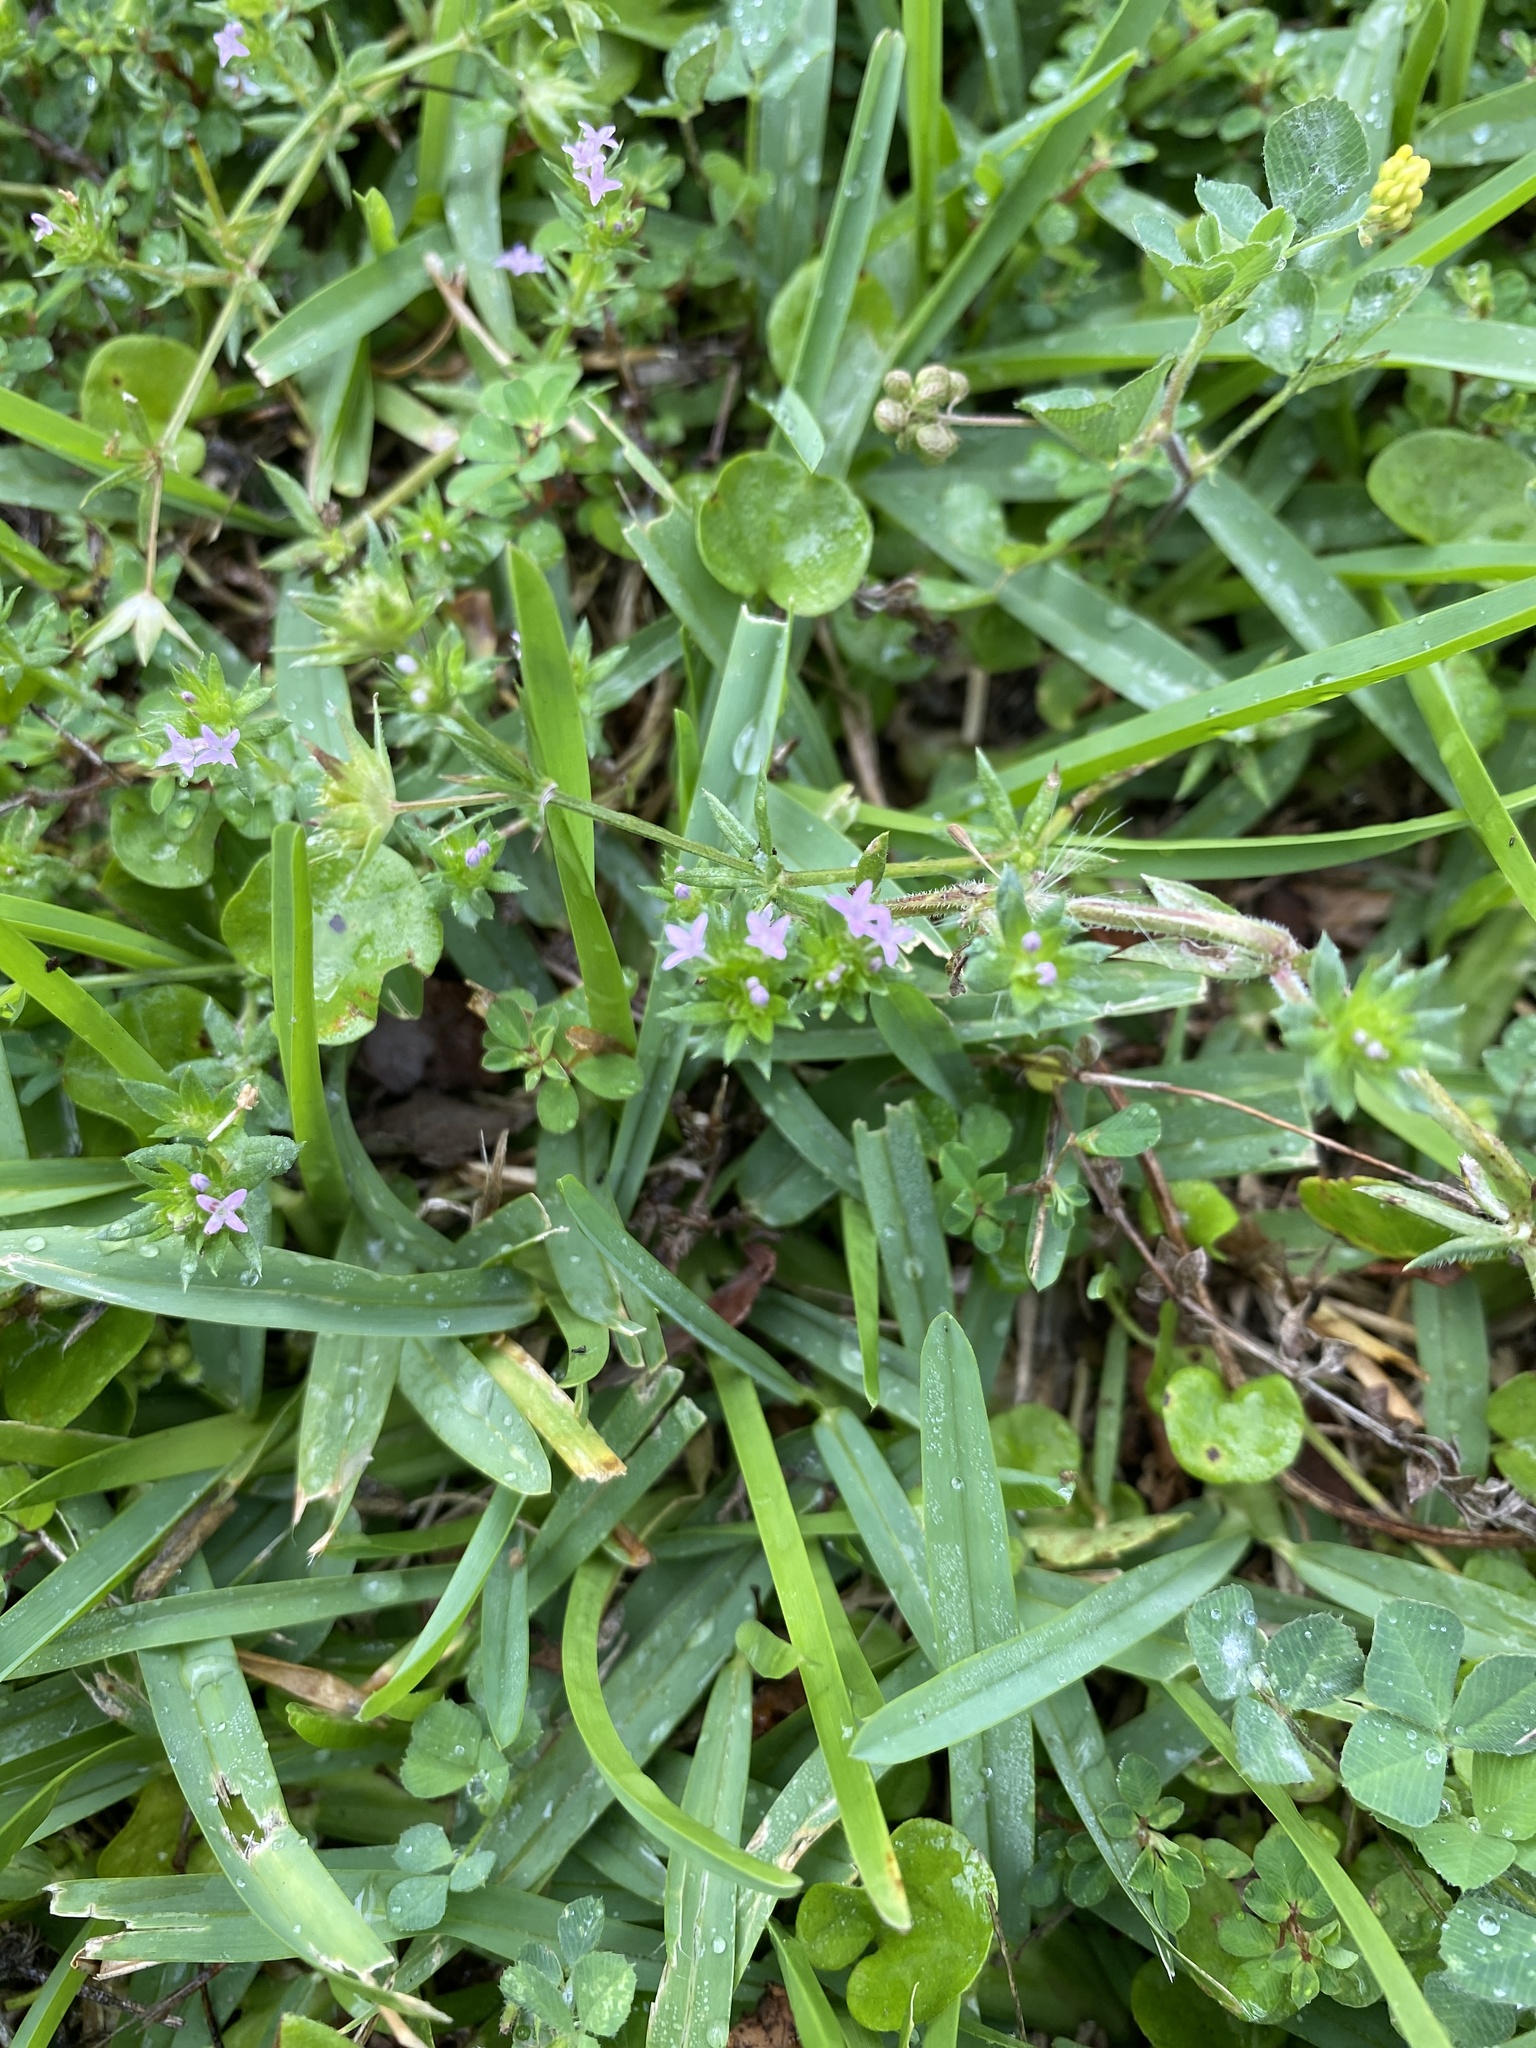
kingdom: Plantae
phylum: Tracheophyta
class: Magnoliopsida
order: Gentianales
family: Rubiaceae
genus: Sherardia
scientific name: Sherardia arvensis
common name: Field madder
